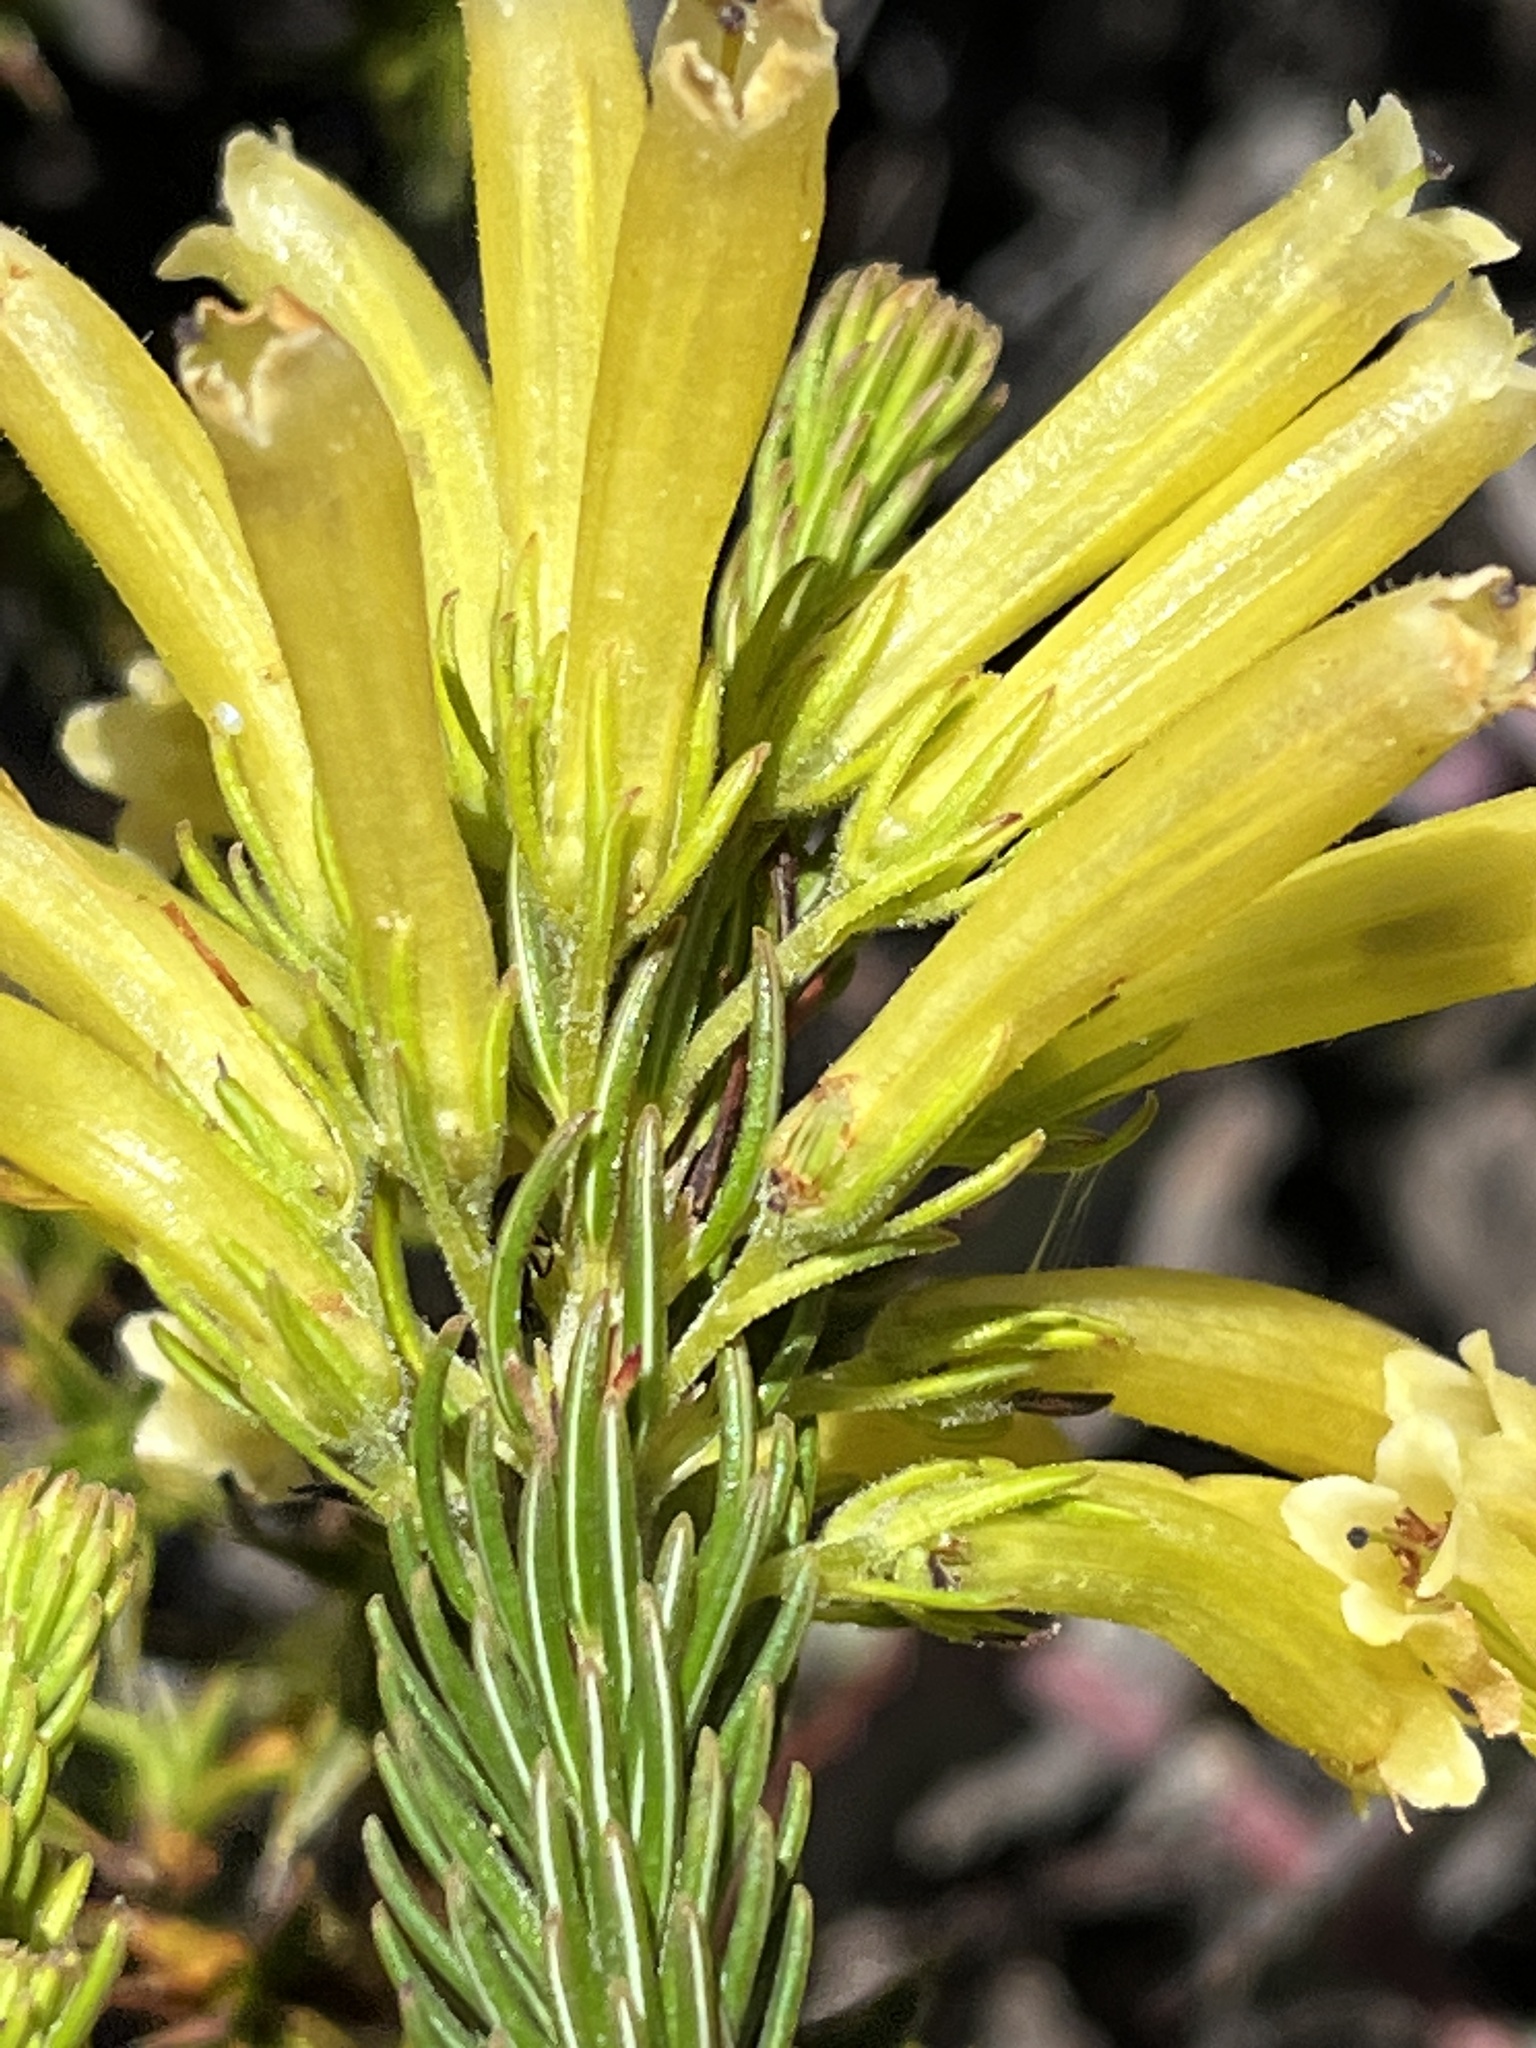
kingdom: Plantae
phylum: Tracheophyta
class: Magnoliopsida
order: Ericales
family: Ericaceae
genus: Erica
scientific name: Erica viscaria
